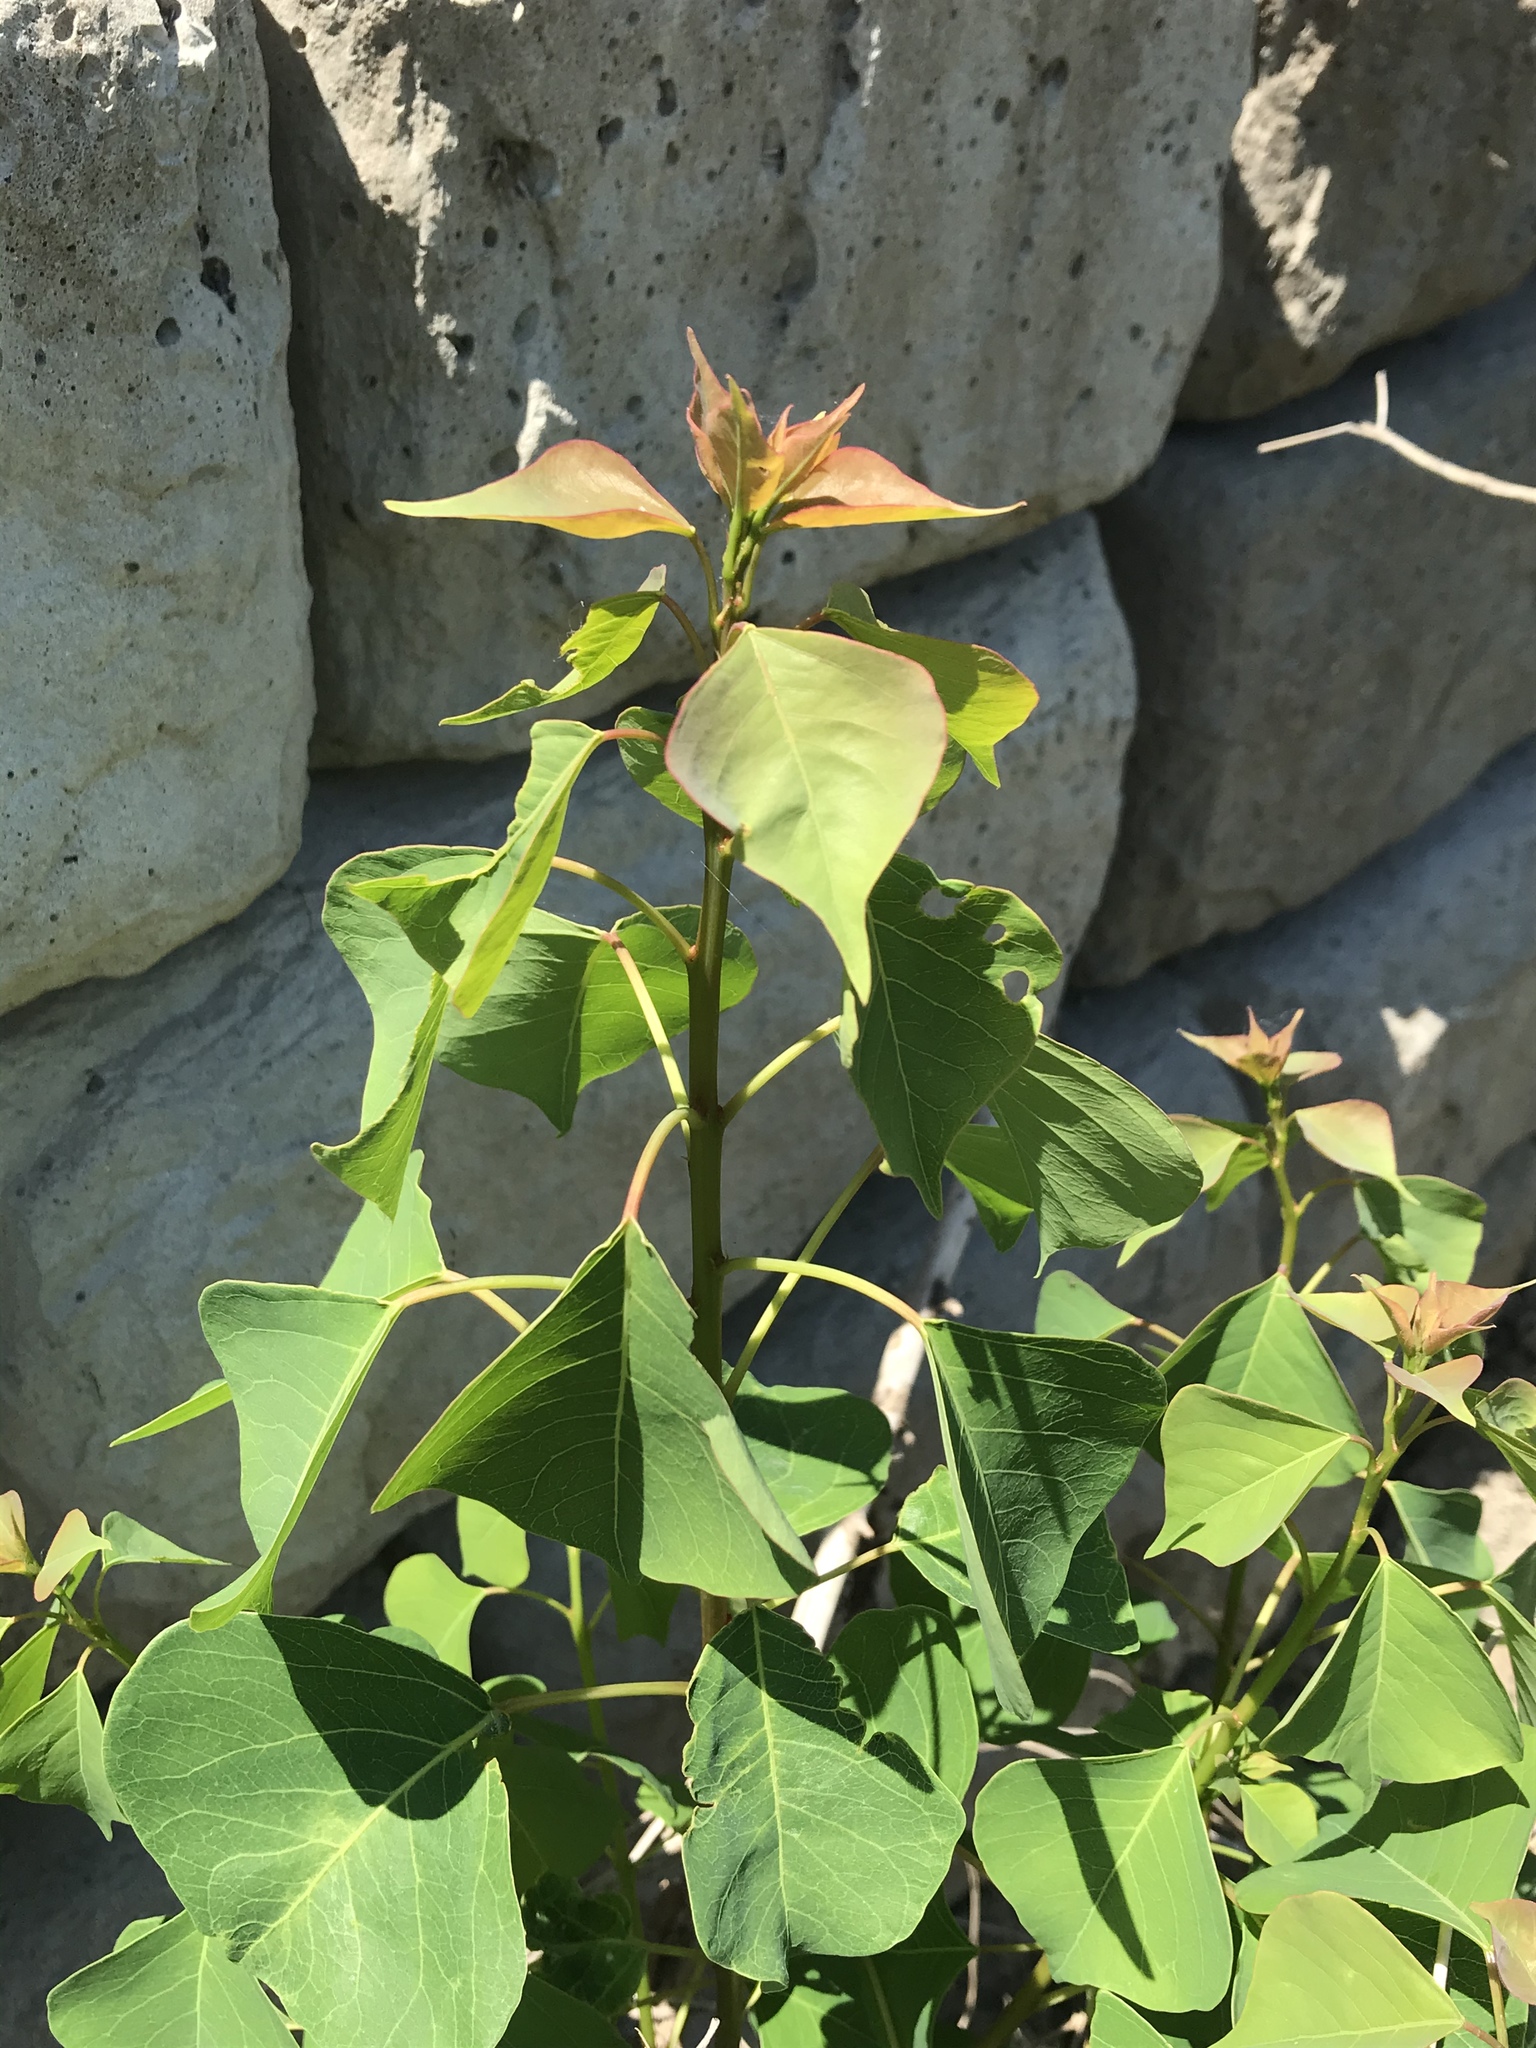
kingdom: Plantae
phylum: Tracheophyta
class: Magnoliopsida
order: Malpighiales
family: Euphorbiaceae
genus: Triadica
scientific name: Triadica sebifera
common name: Chinese tallow
